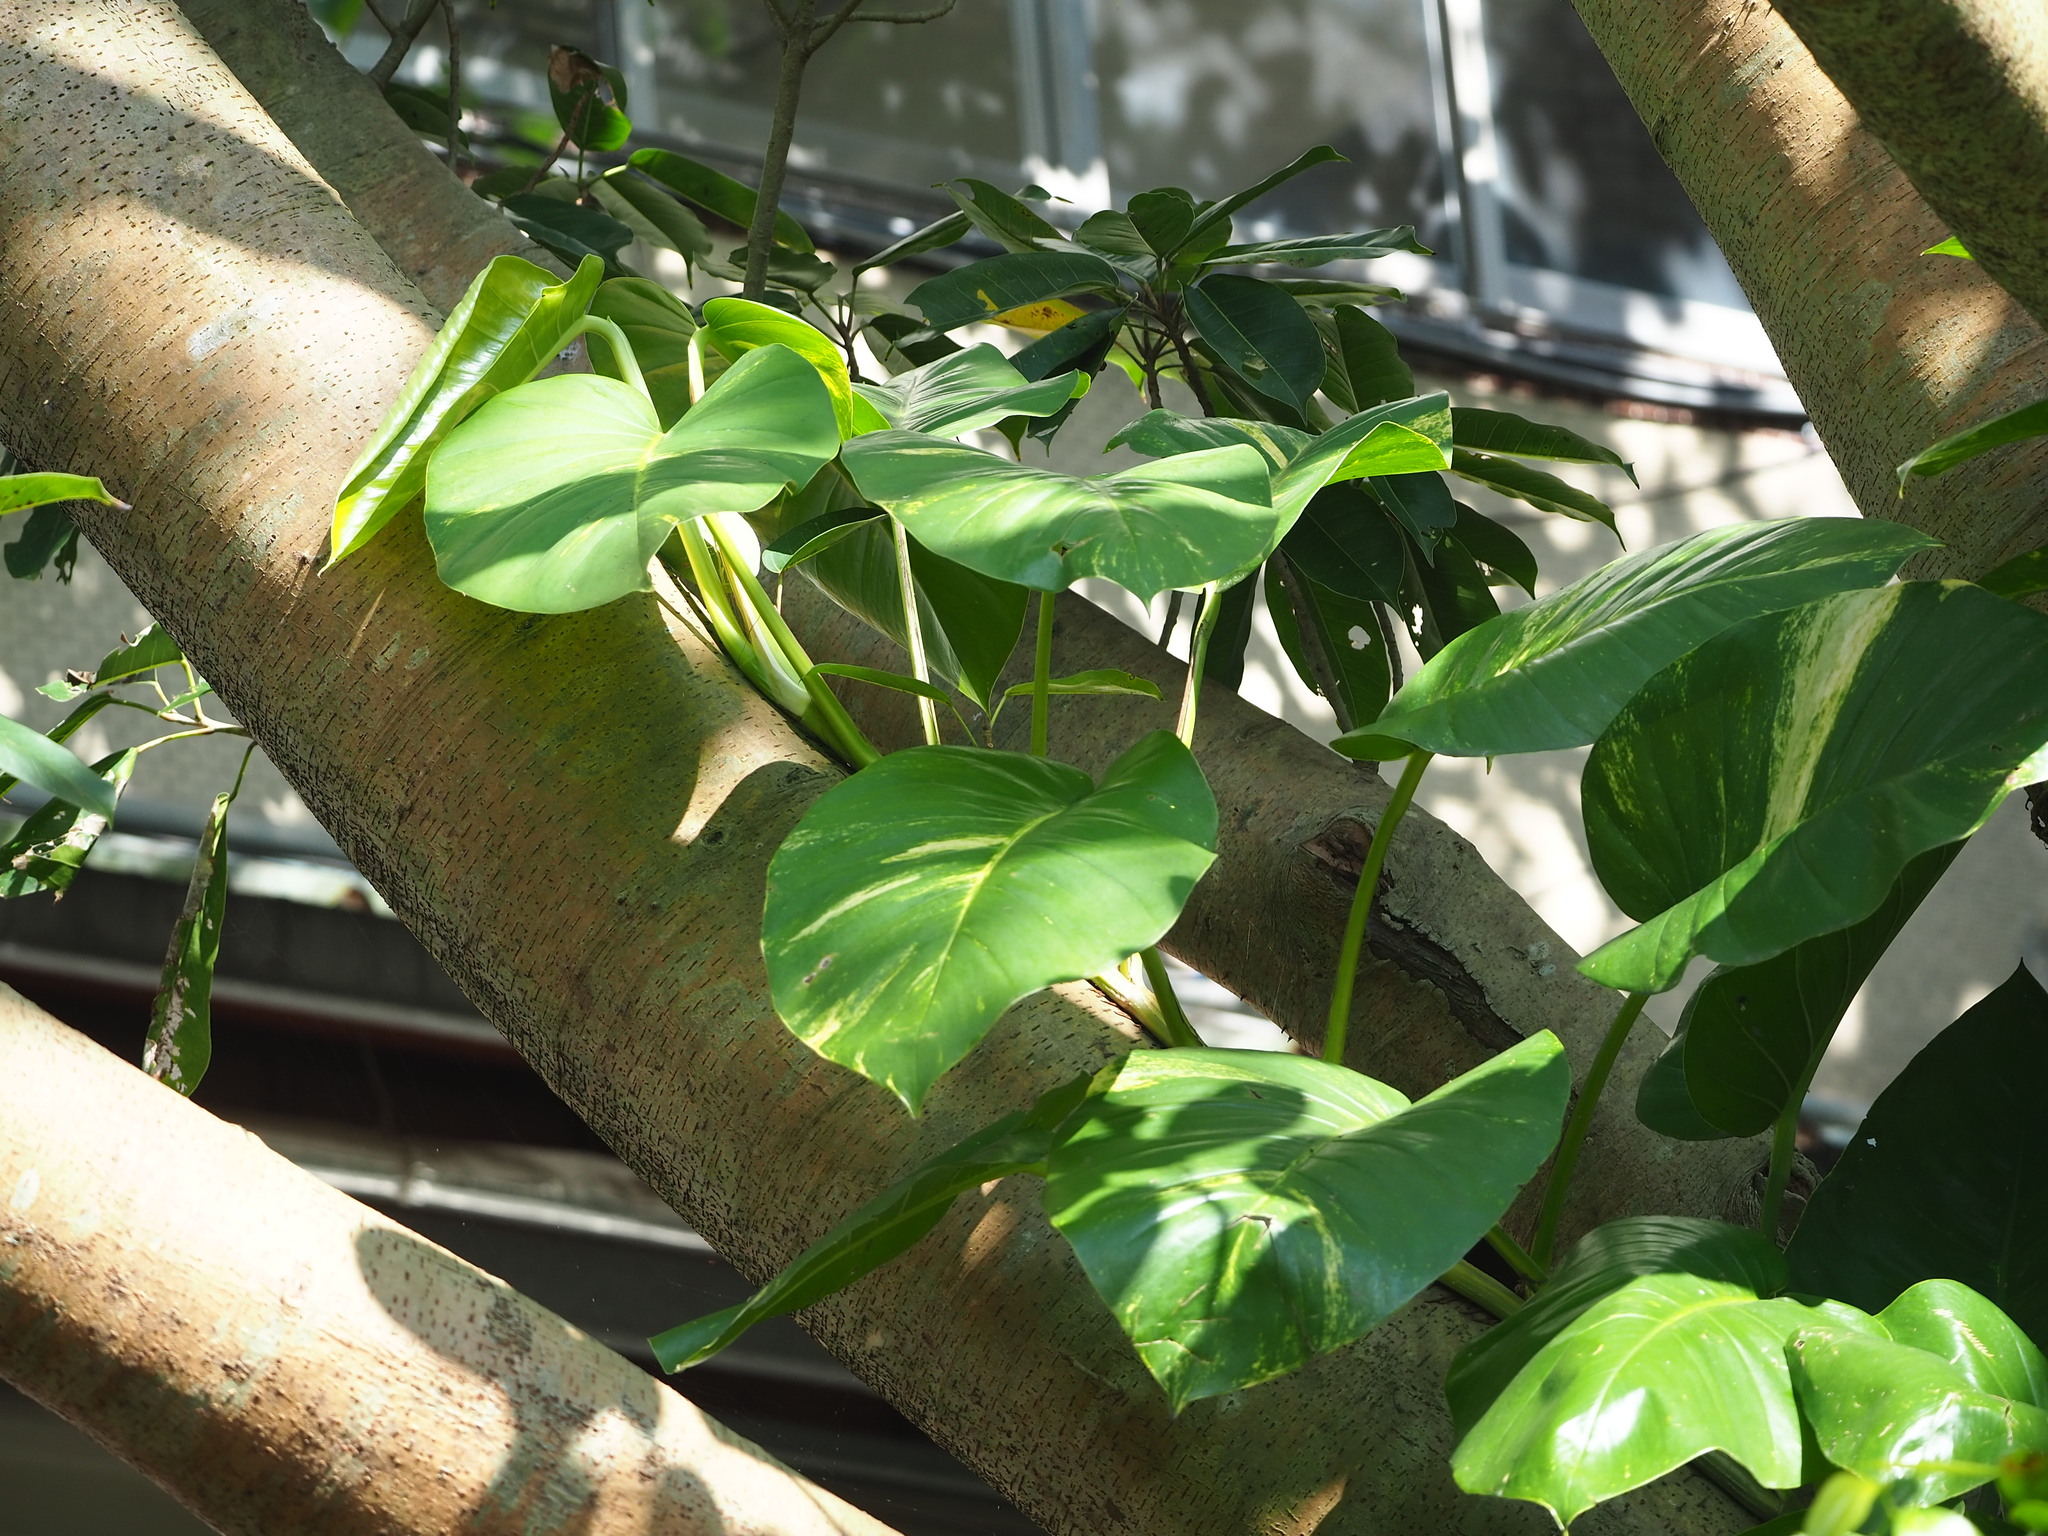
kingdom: Plantae
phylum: Tracheophyta
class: Liliopsida
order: Alismatales
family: Araceae
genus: Epipremnum
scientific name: Epipremnum aureum
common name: Golden hunter's-robe
